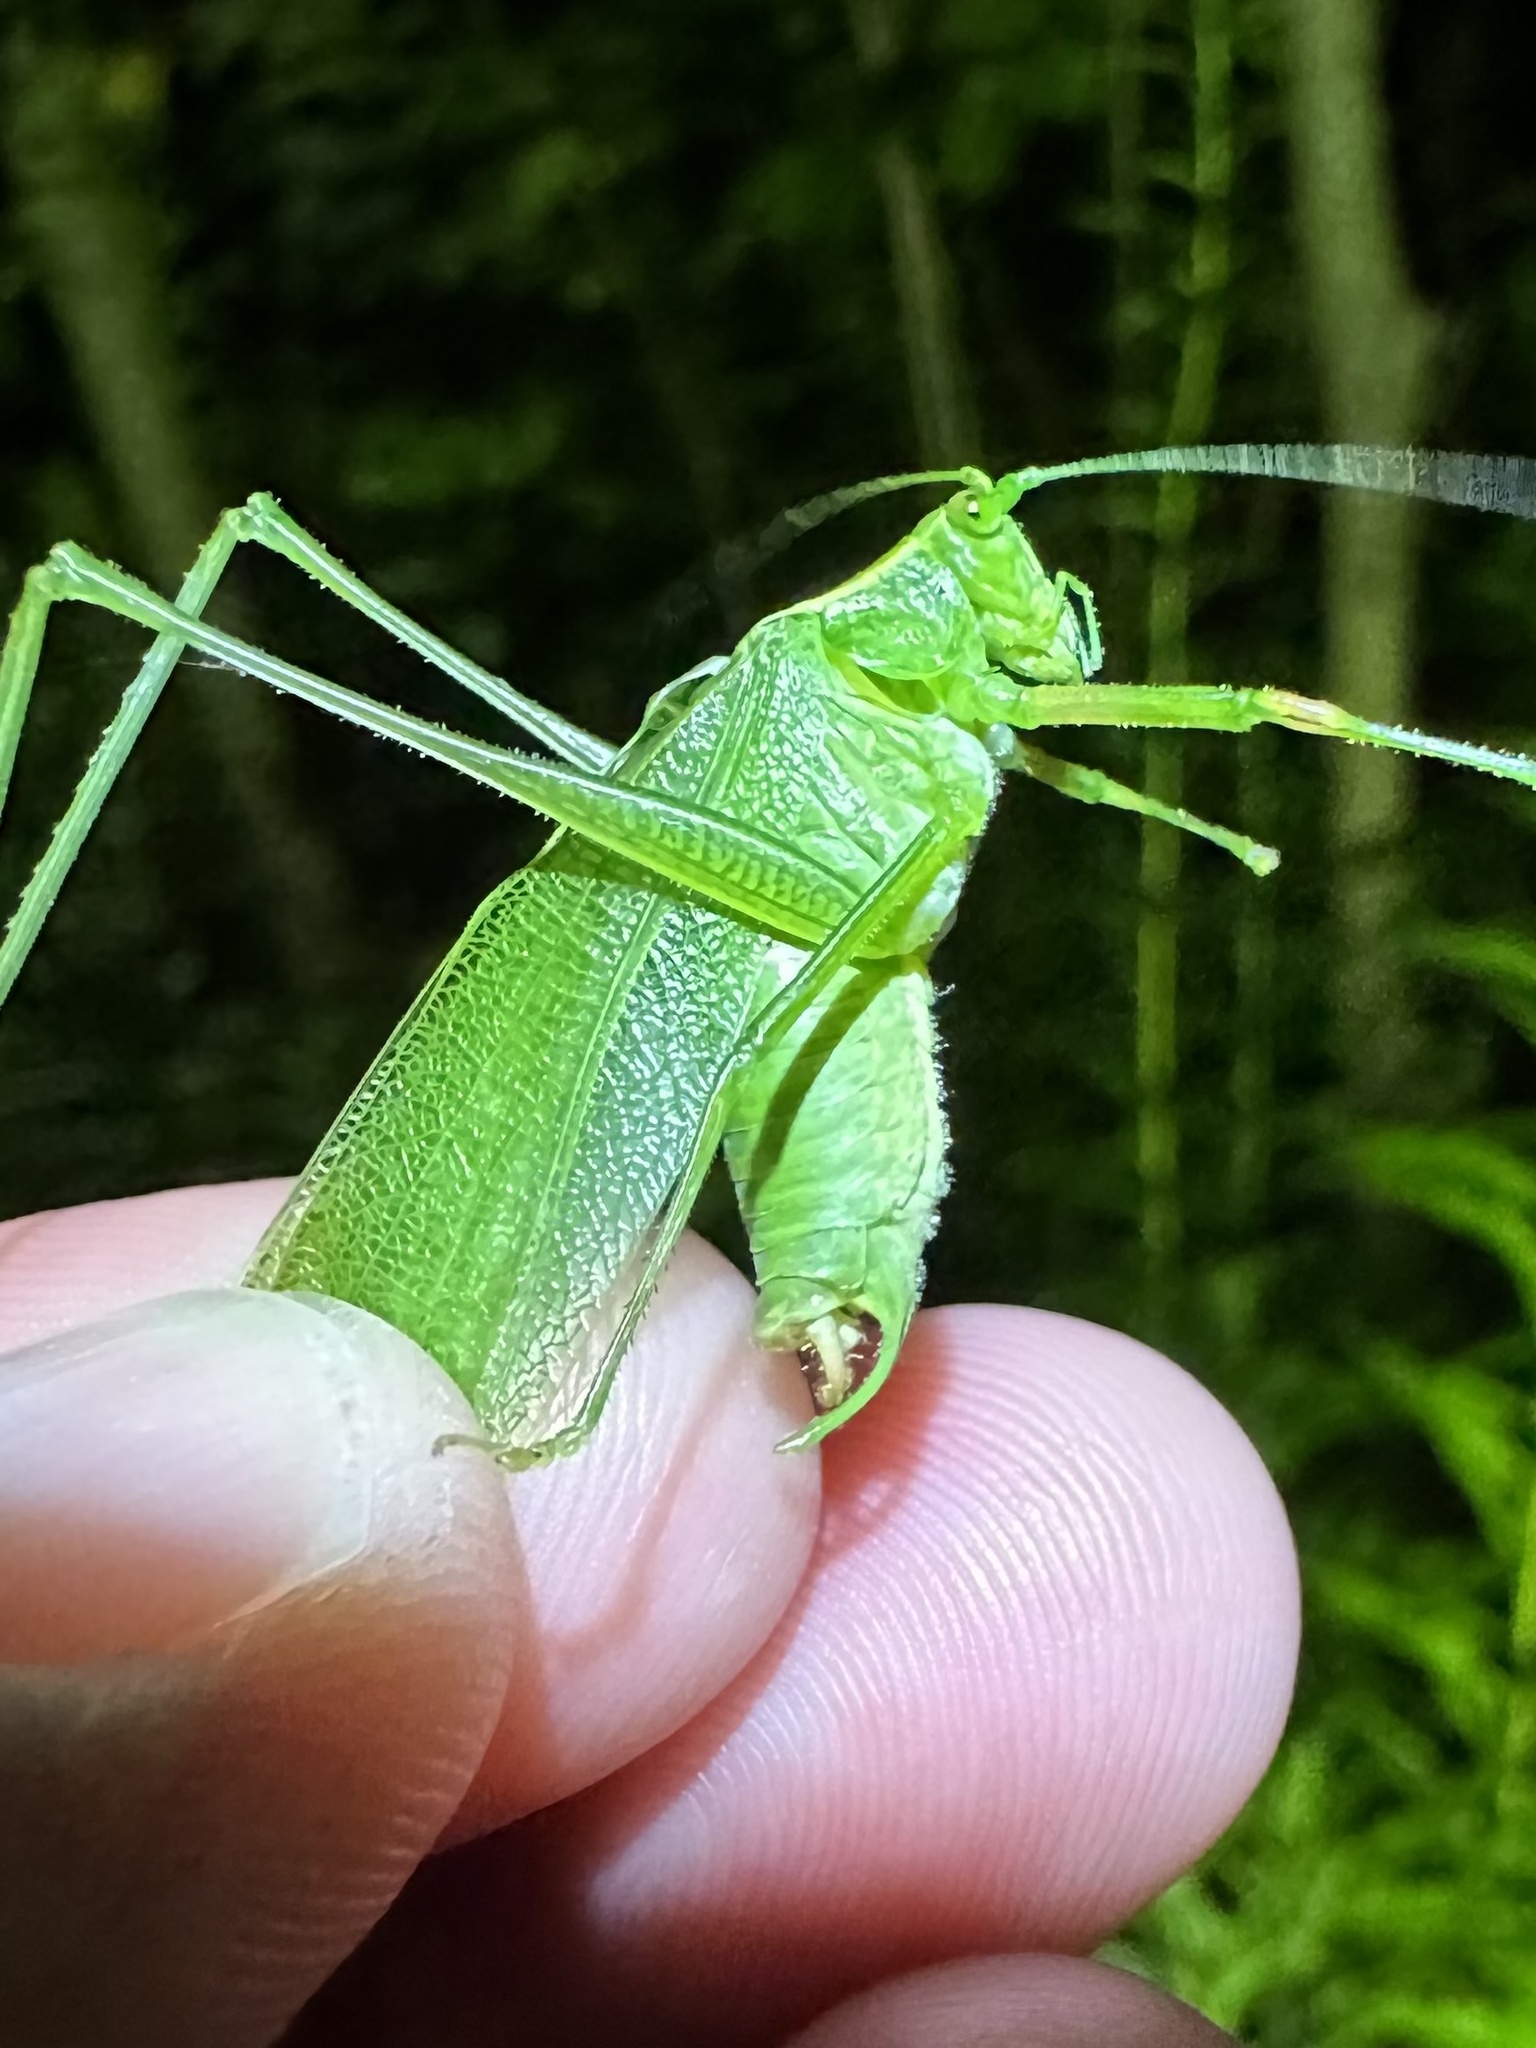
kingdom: Animalia
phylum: Arthropoda
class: Insecta
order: Orthoptera
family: Tettigoniidae
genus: Scudderia
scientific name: Scudderia septentrionalis
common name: Northern bush-katydid
